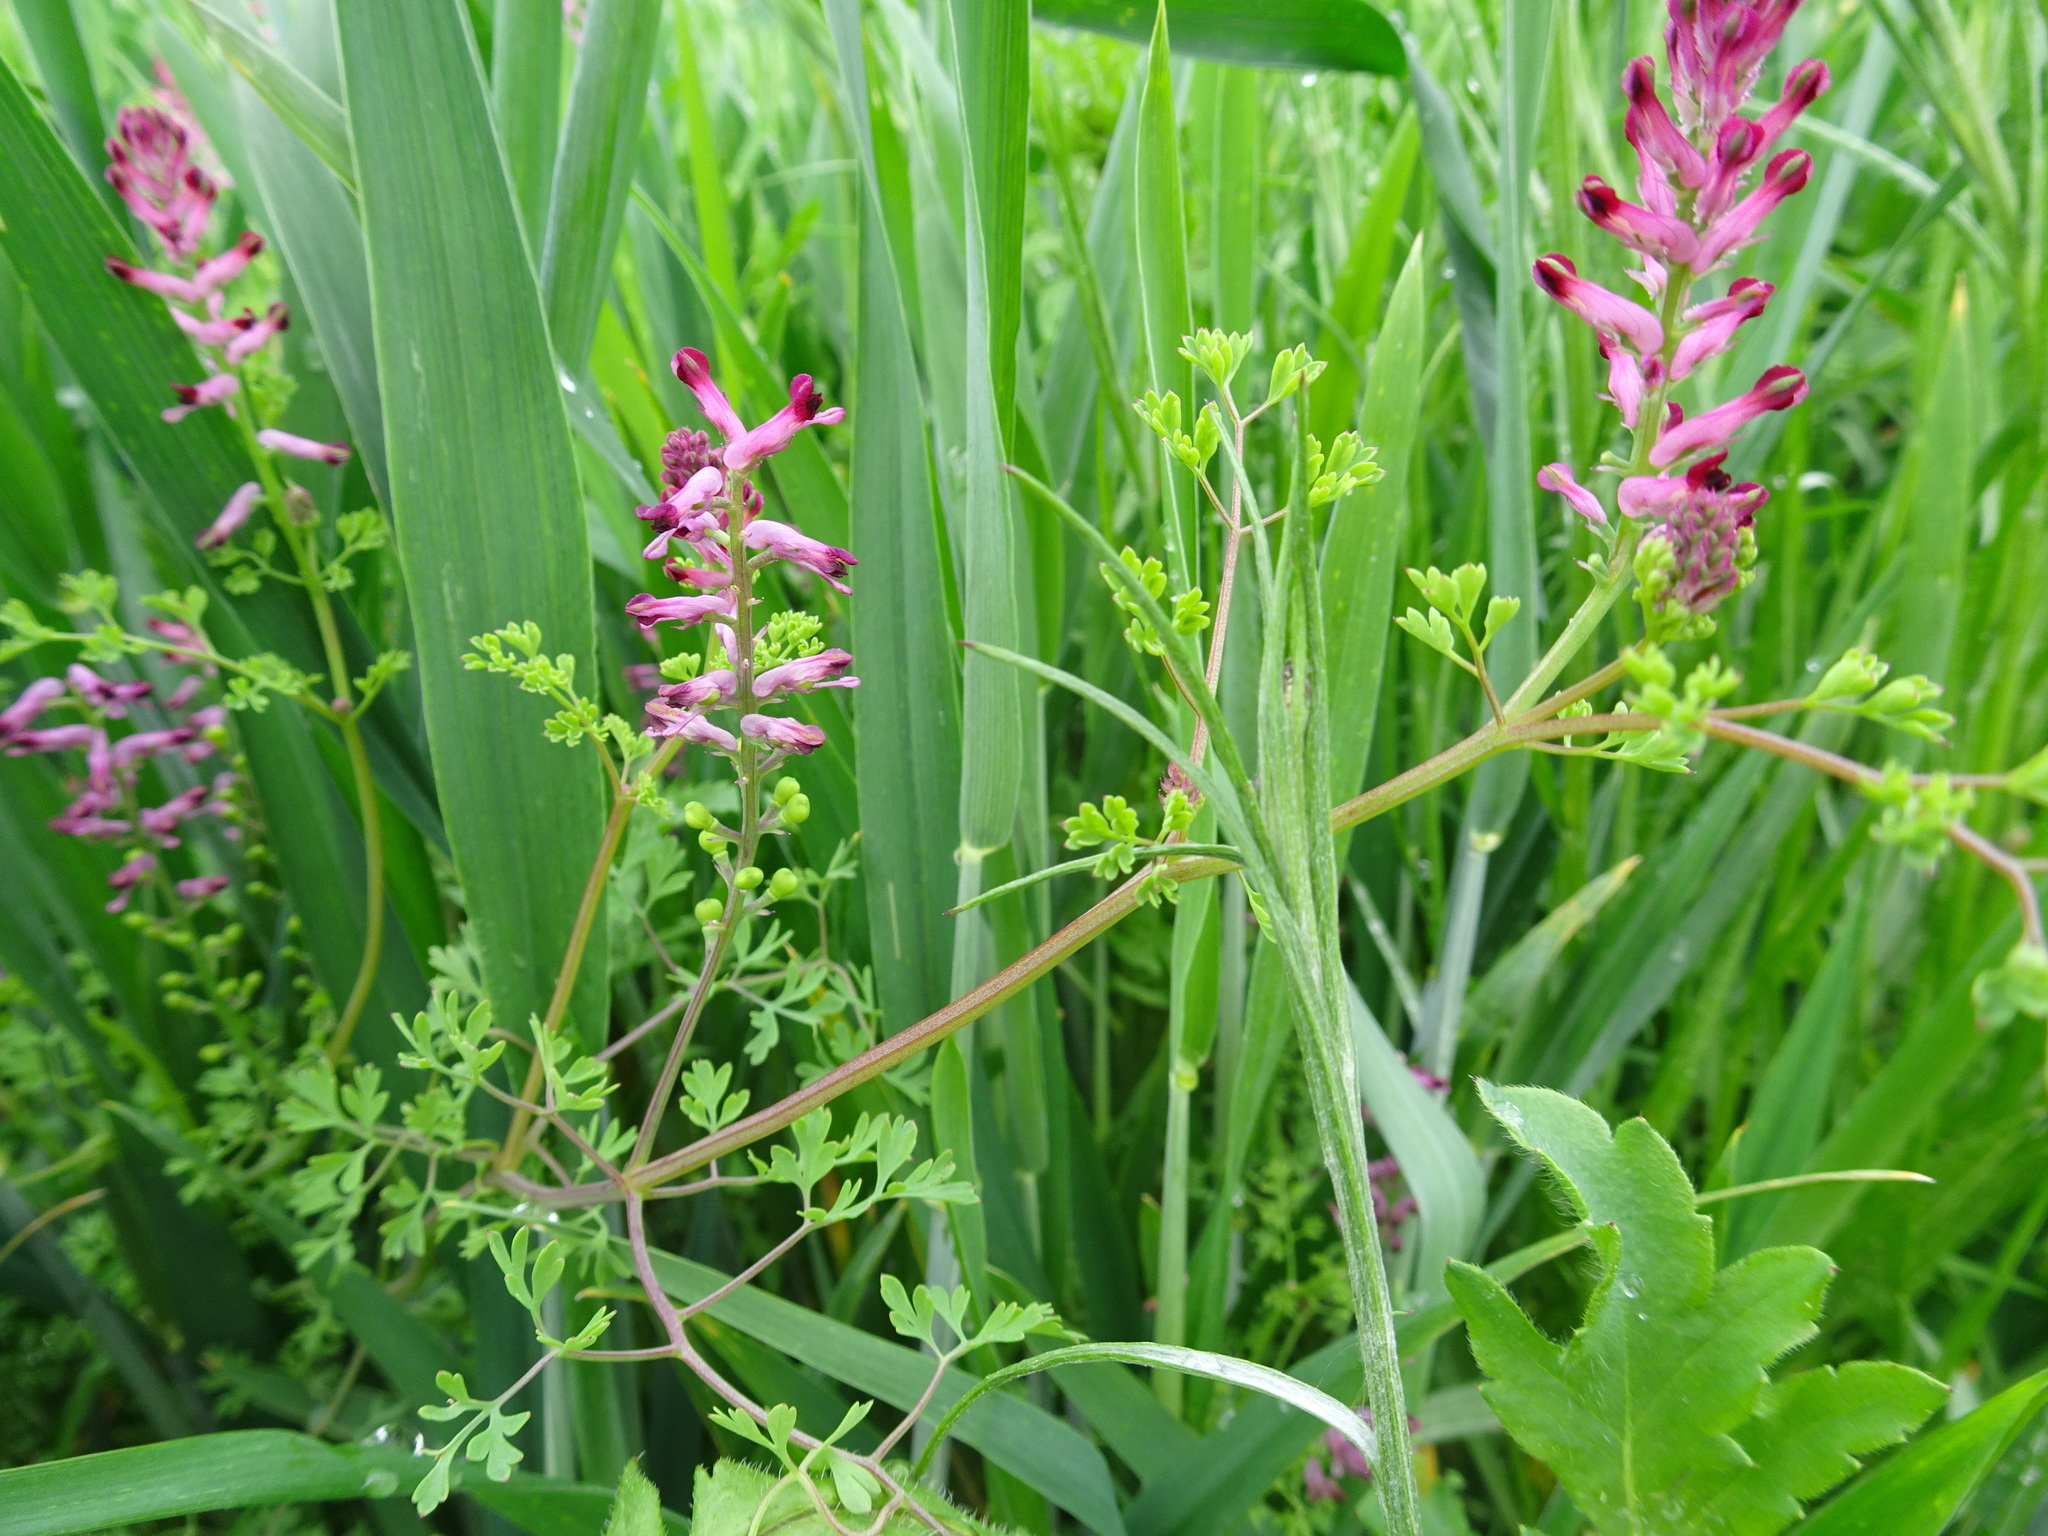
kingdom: Plantae
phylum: Tracheophyta
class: Magnoliopsida
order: Ranunculales
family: Papaveraceae
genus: Fumaria
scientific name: Fumaria officinalis
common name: Common fumitory
